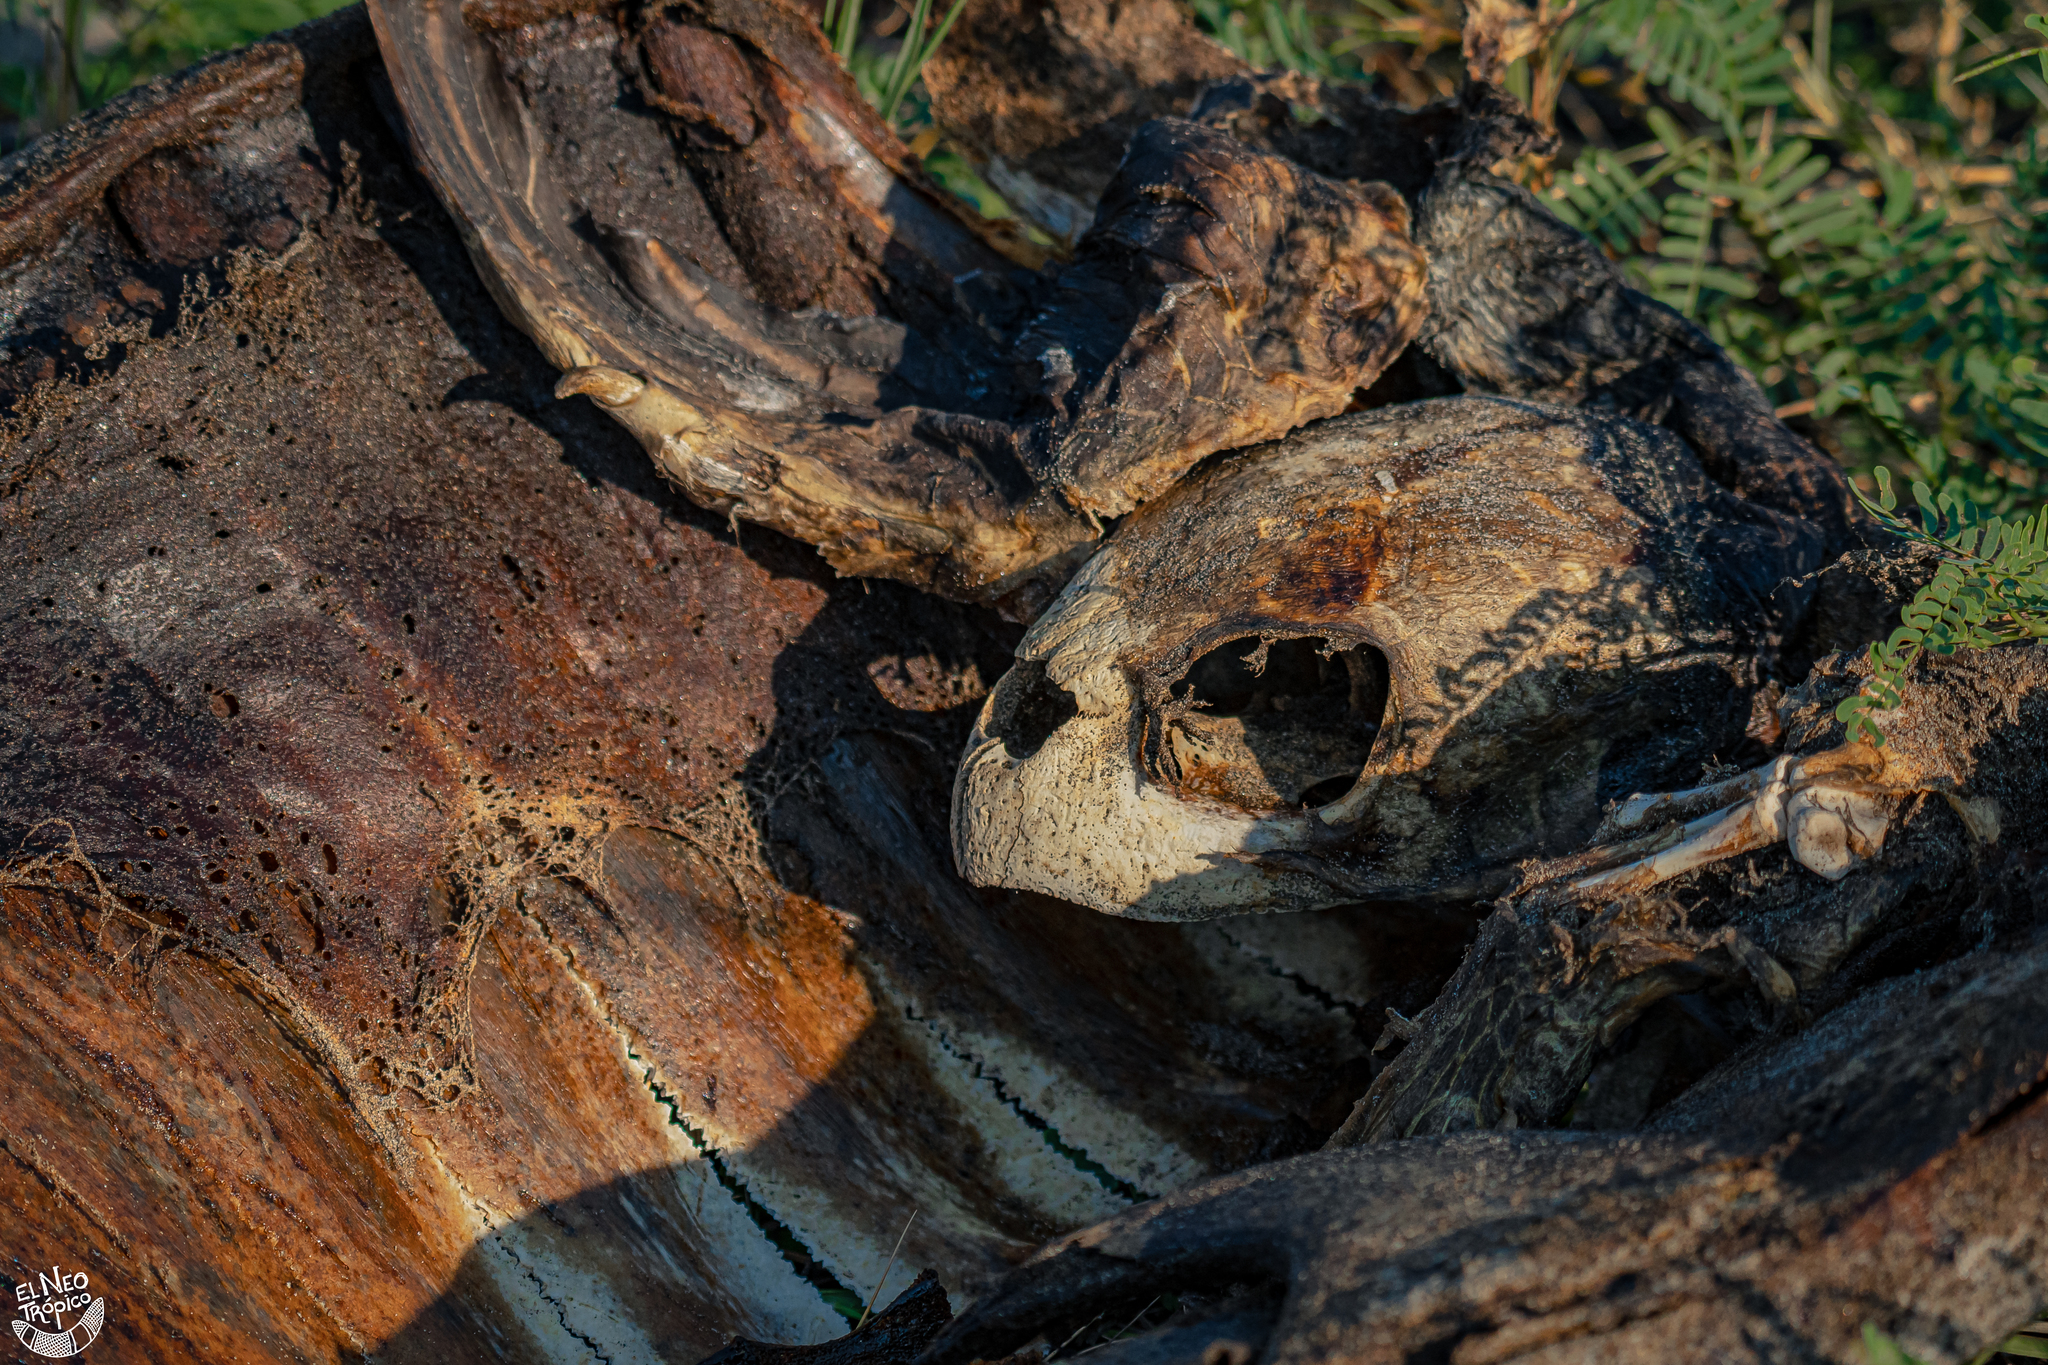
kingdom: Animalia
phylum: Chordata
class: Testudines
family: Cheloniidae
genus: Lepidochelys
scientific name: Lepidochelys olivacea
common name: Olive ridley
